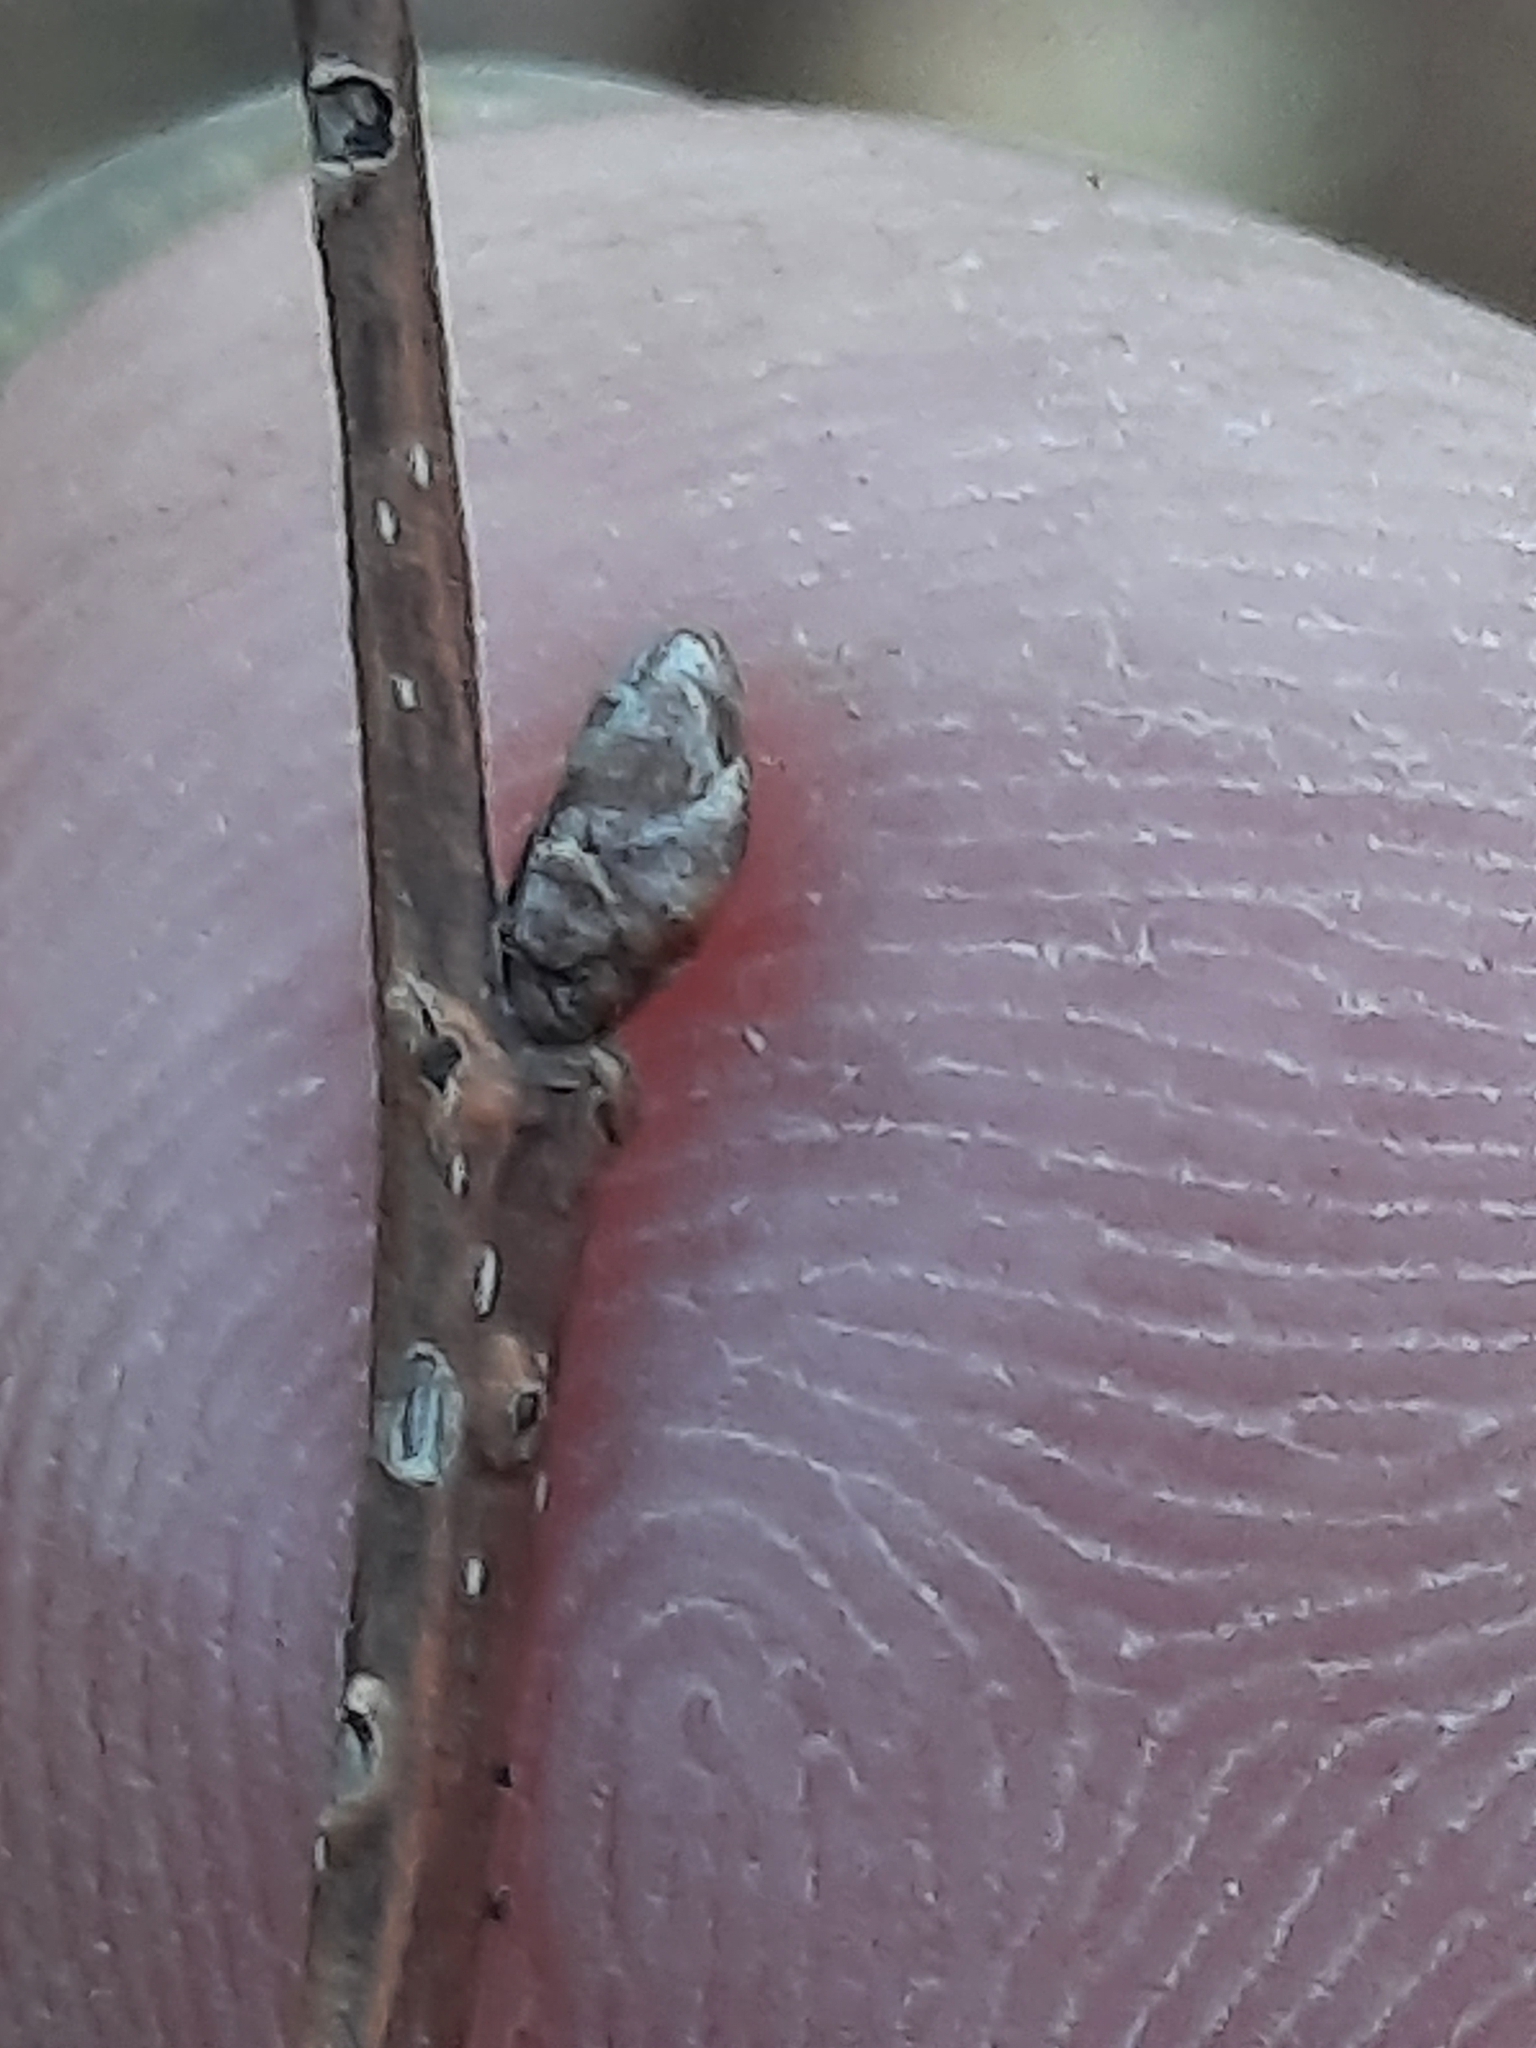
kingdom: Plantae
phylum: Tracheophyta
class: Magnoliopsida
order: Fagales
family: Betulaceae
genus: Carpinus
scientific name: Carpinus caroliniana
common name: American hornbeam
